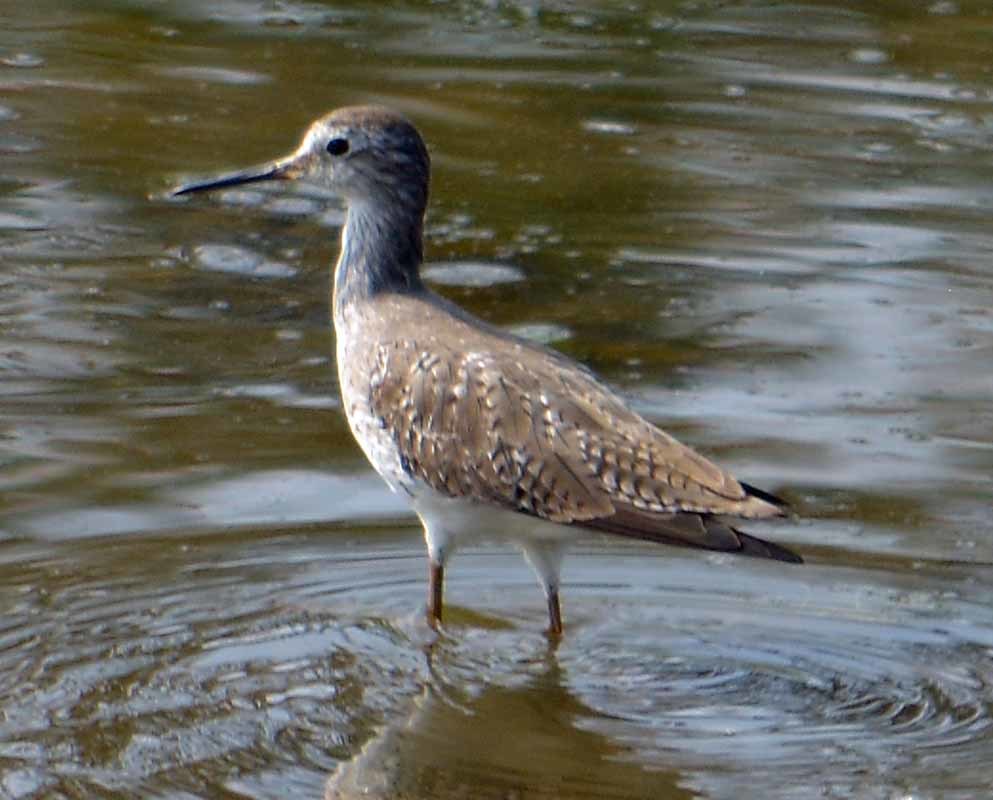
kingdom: Animalia
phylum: Chordata
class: Aves
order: Charadriiformes
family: Scolopacidae
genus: Tringa
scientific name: Tringa melanoleuca
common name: Greater yellowlegs
